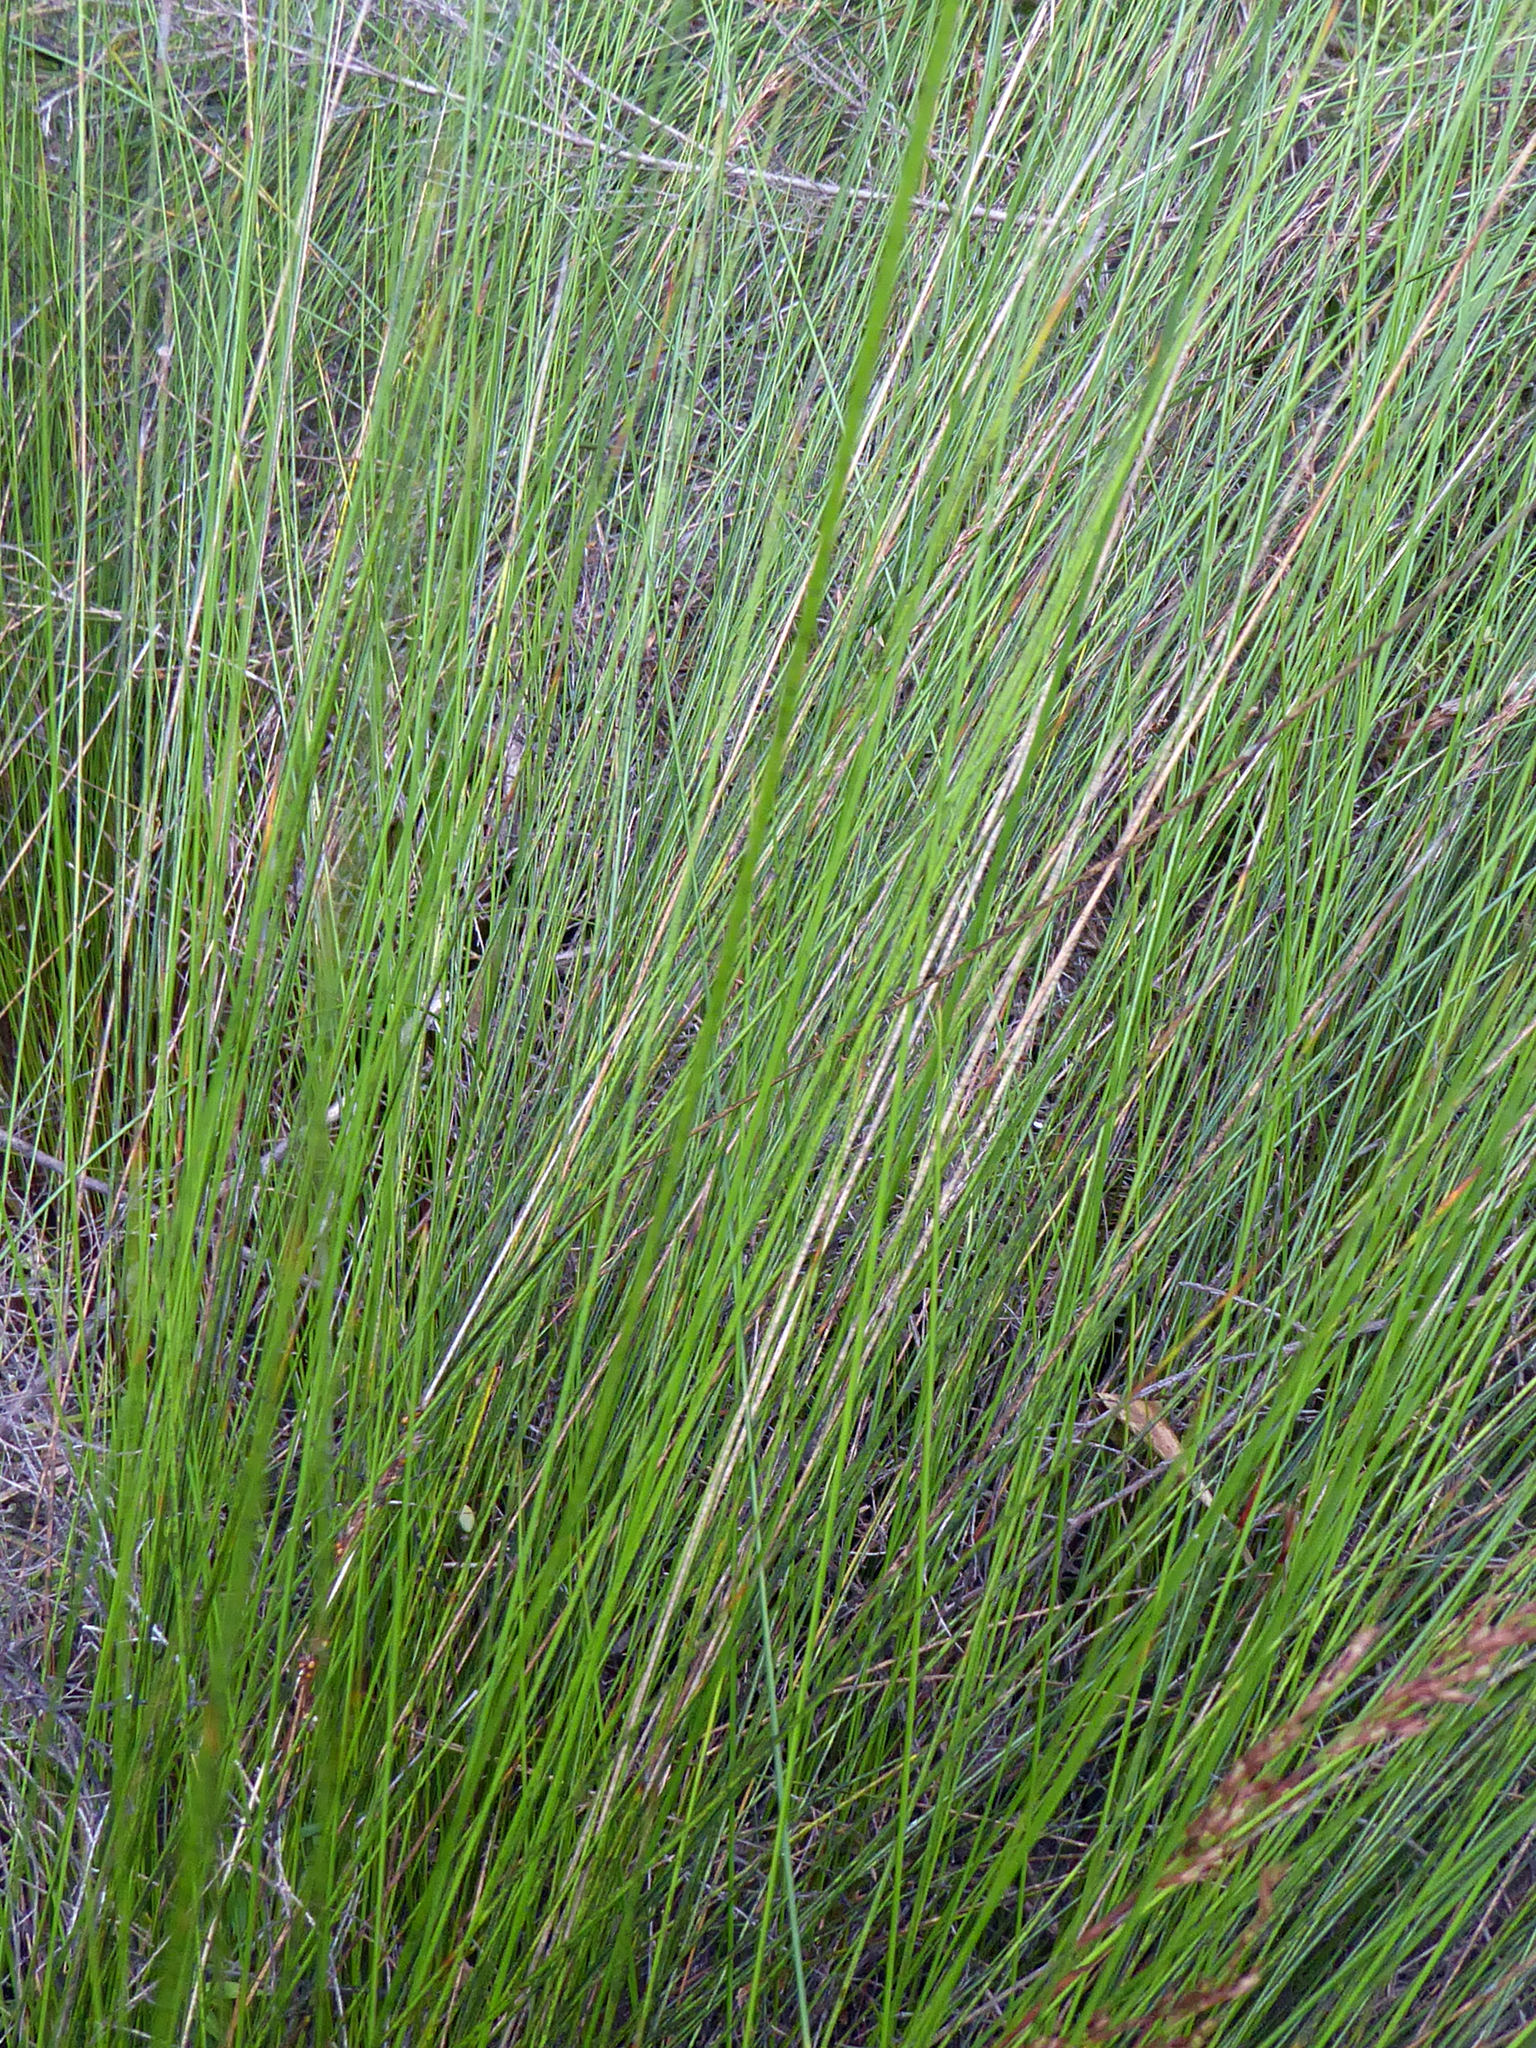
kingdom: Plantae
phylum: Tracheophyta
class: Liliopsida
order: Poales
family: Cyperaceae
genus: Machaerina
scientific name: Machaerina tenax
